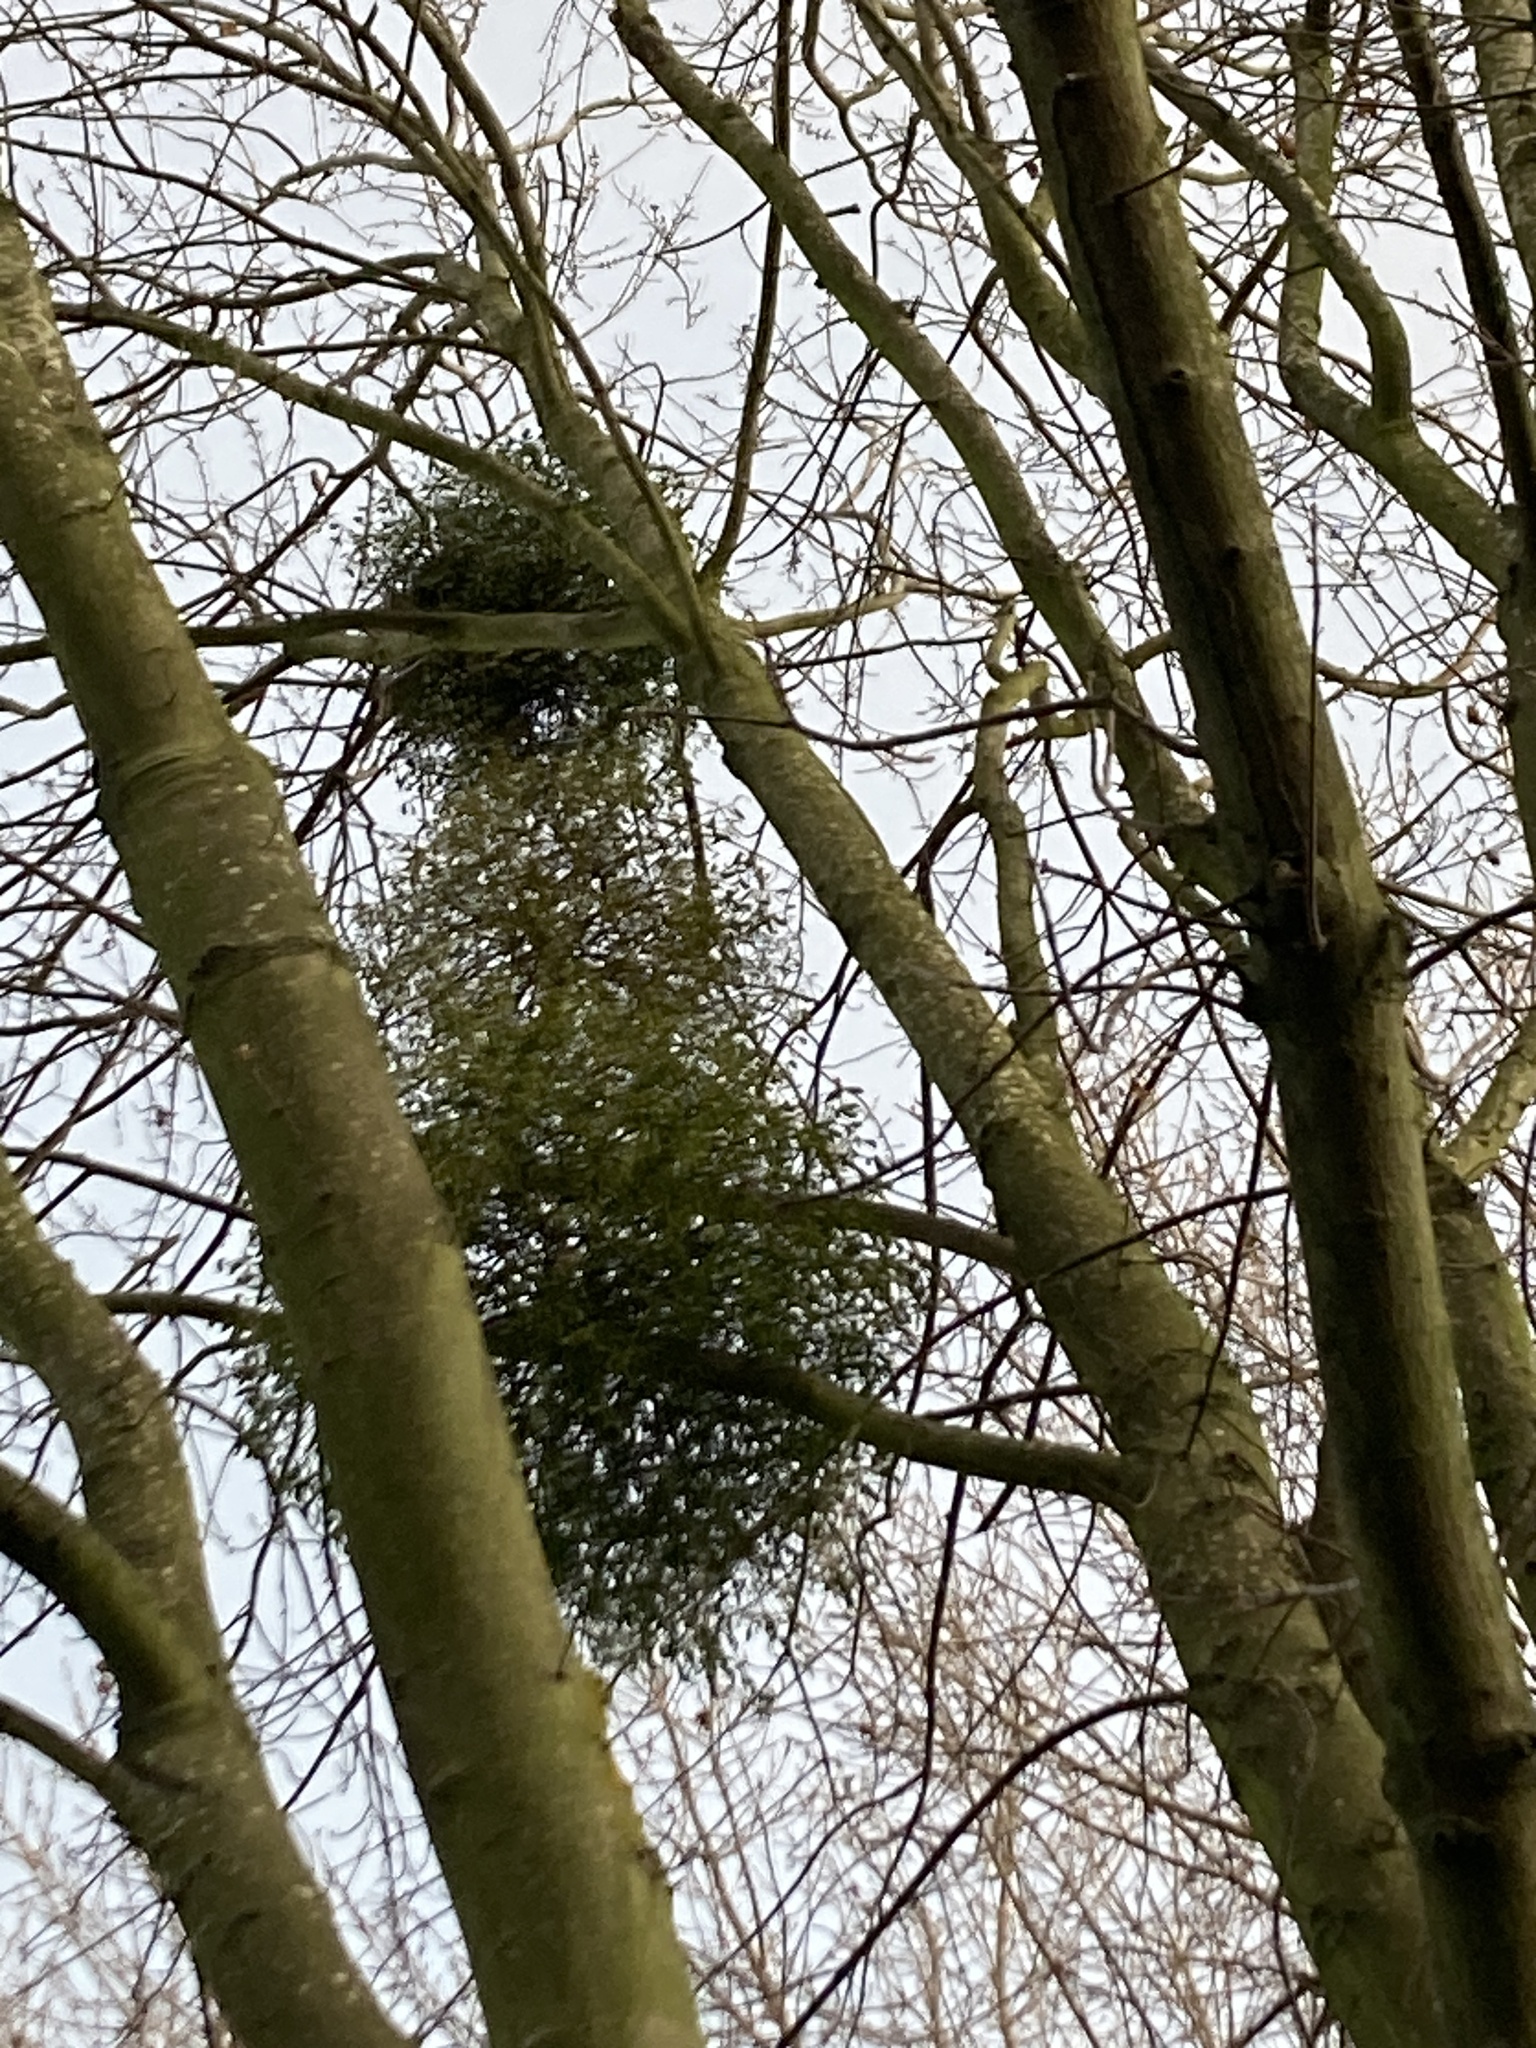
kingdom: Plantae
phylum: Tracheophyta
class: Magnoliopsida
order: Santalales
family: Viscaceae
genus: Viscum
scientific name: Viscum album
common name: Mistletoe
